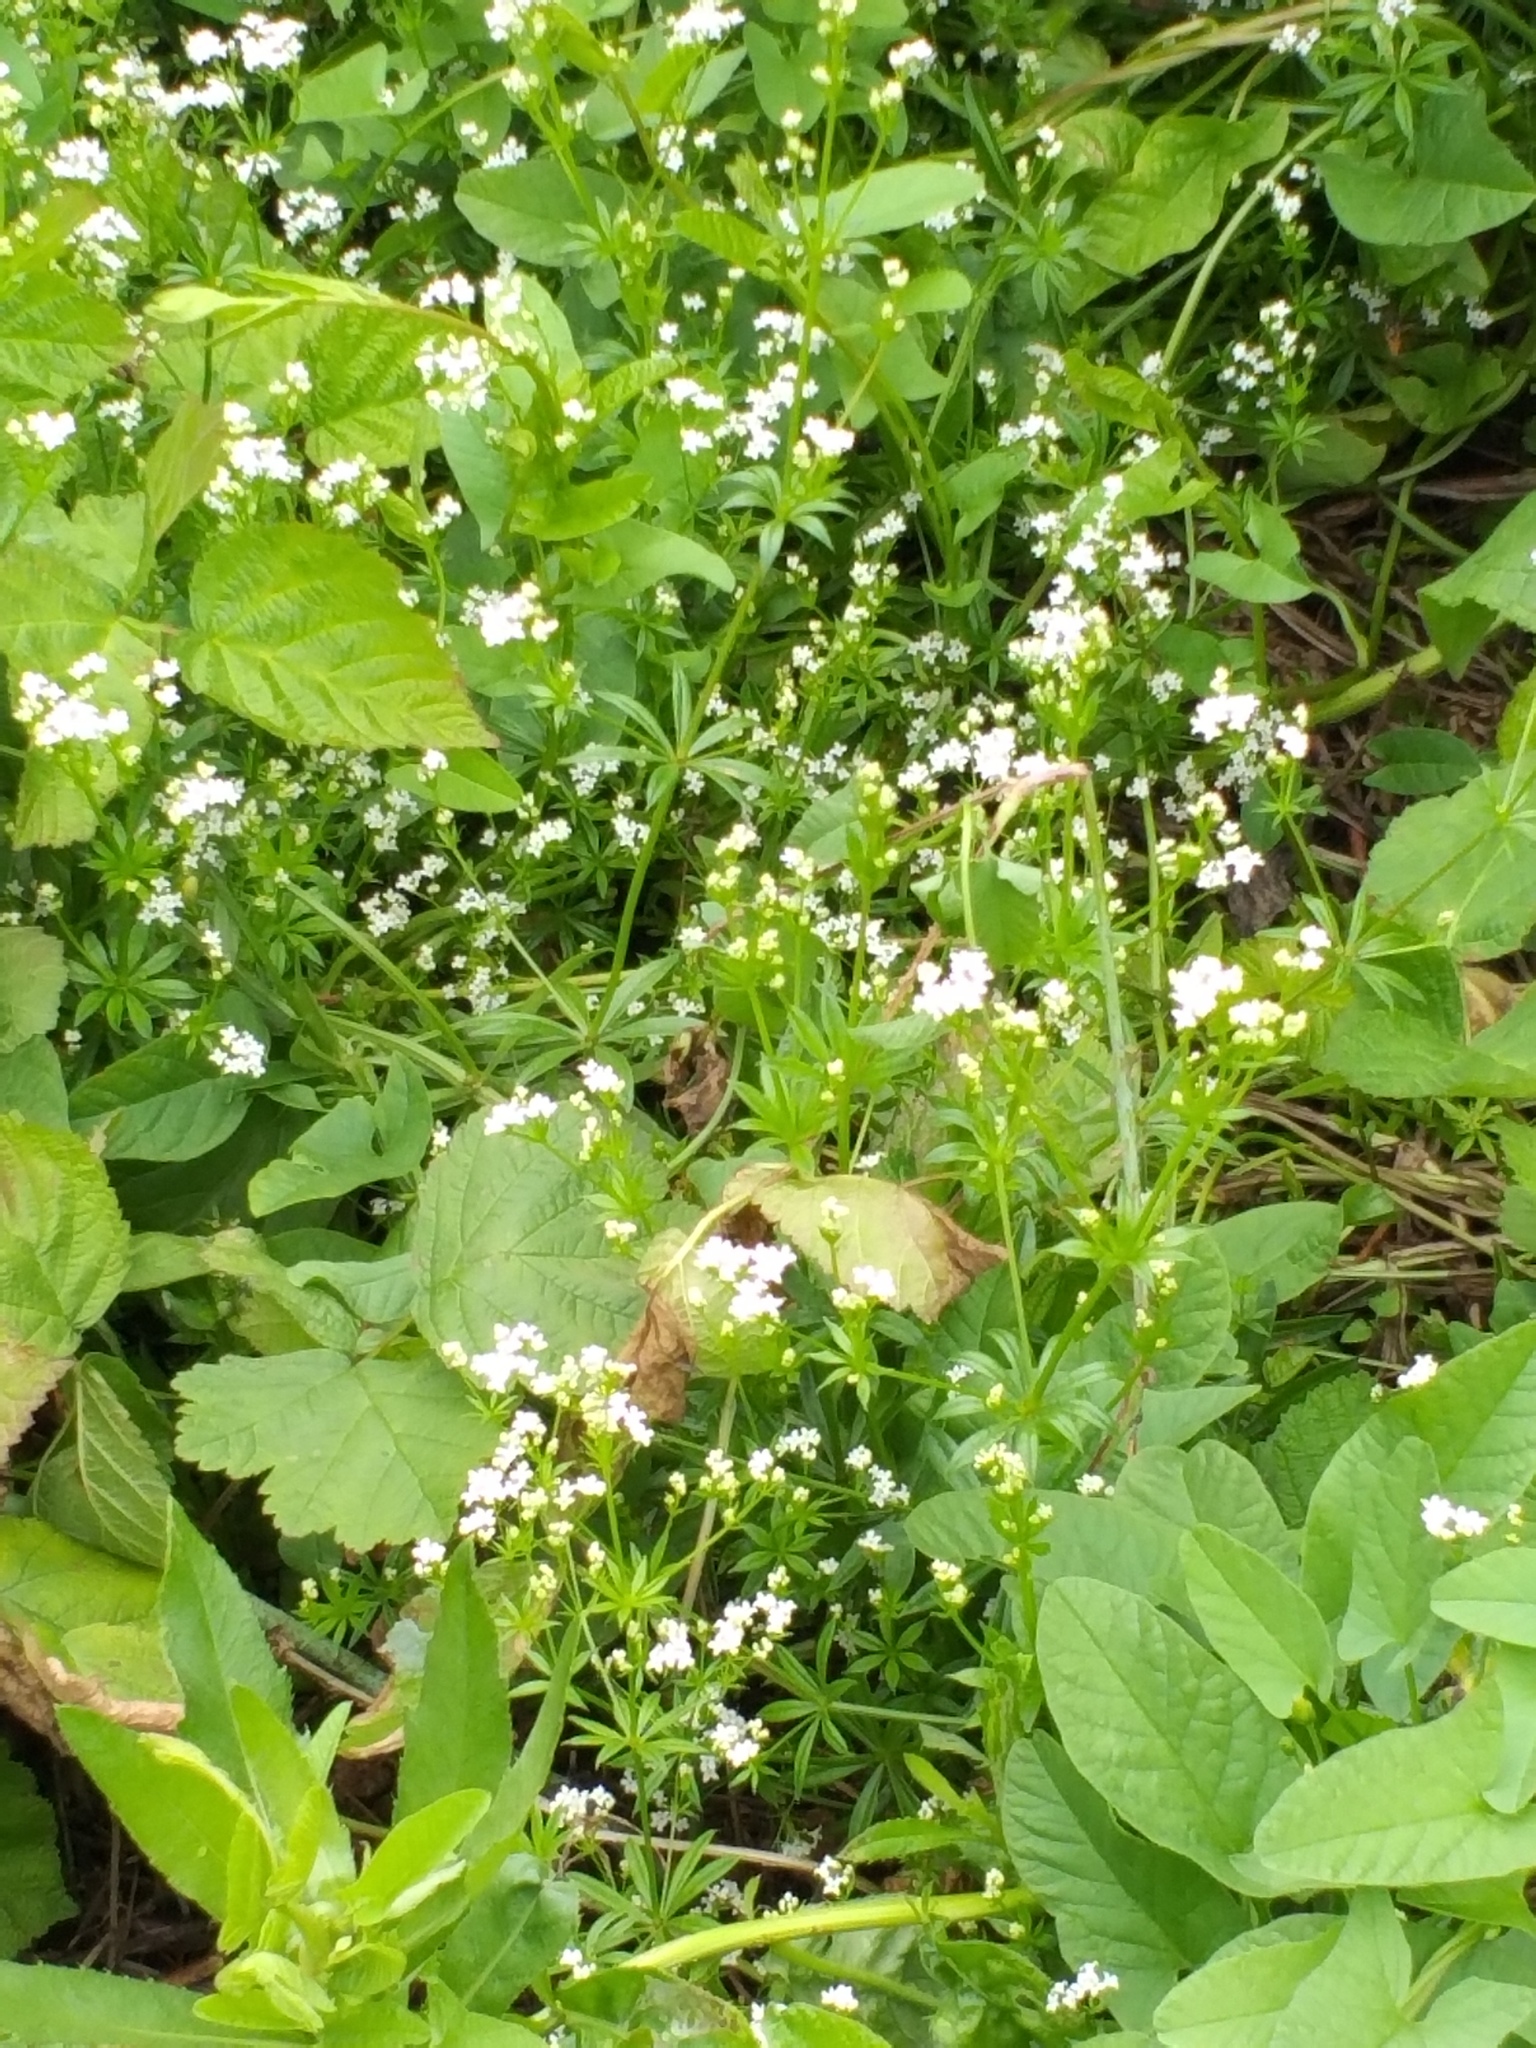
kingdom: Plantae
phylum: Tracheophyta
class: Magnoliopsida
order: Gentianales
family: Rubiaceae
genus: Galium
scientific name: Galium rivale
